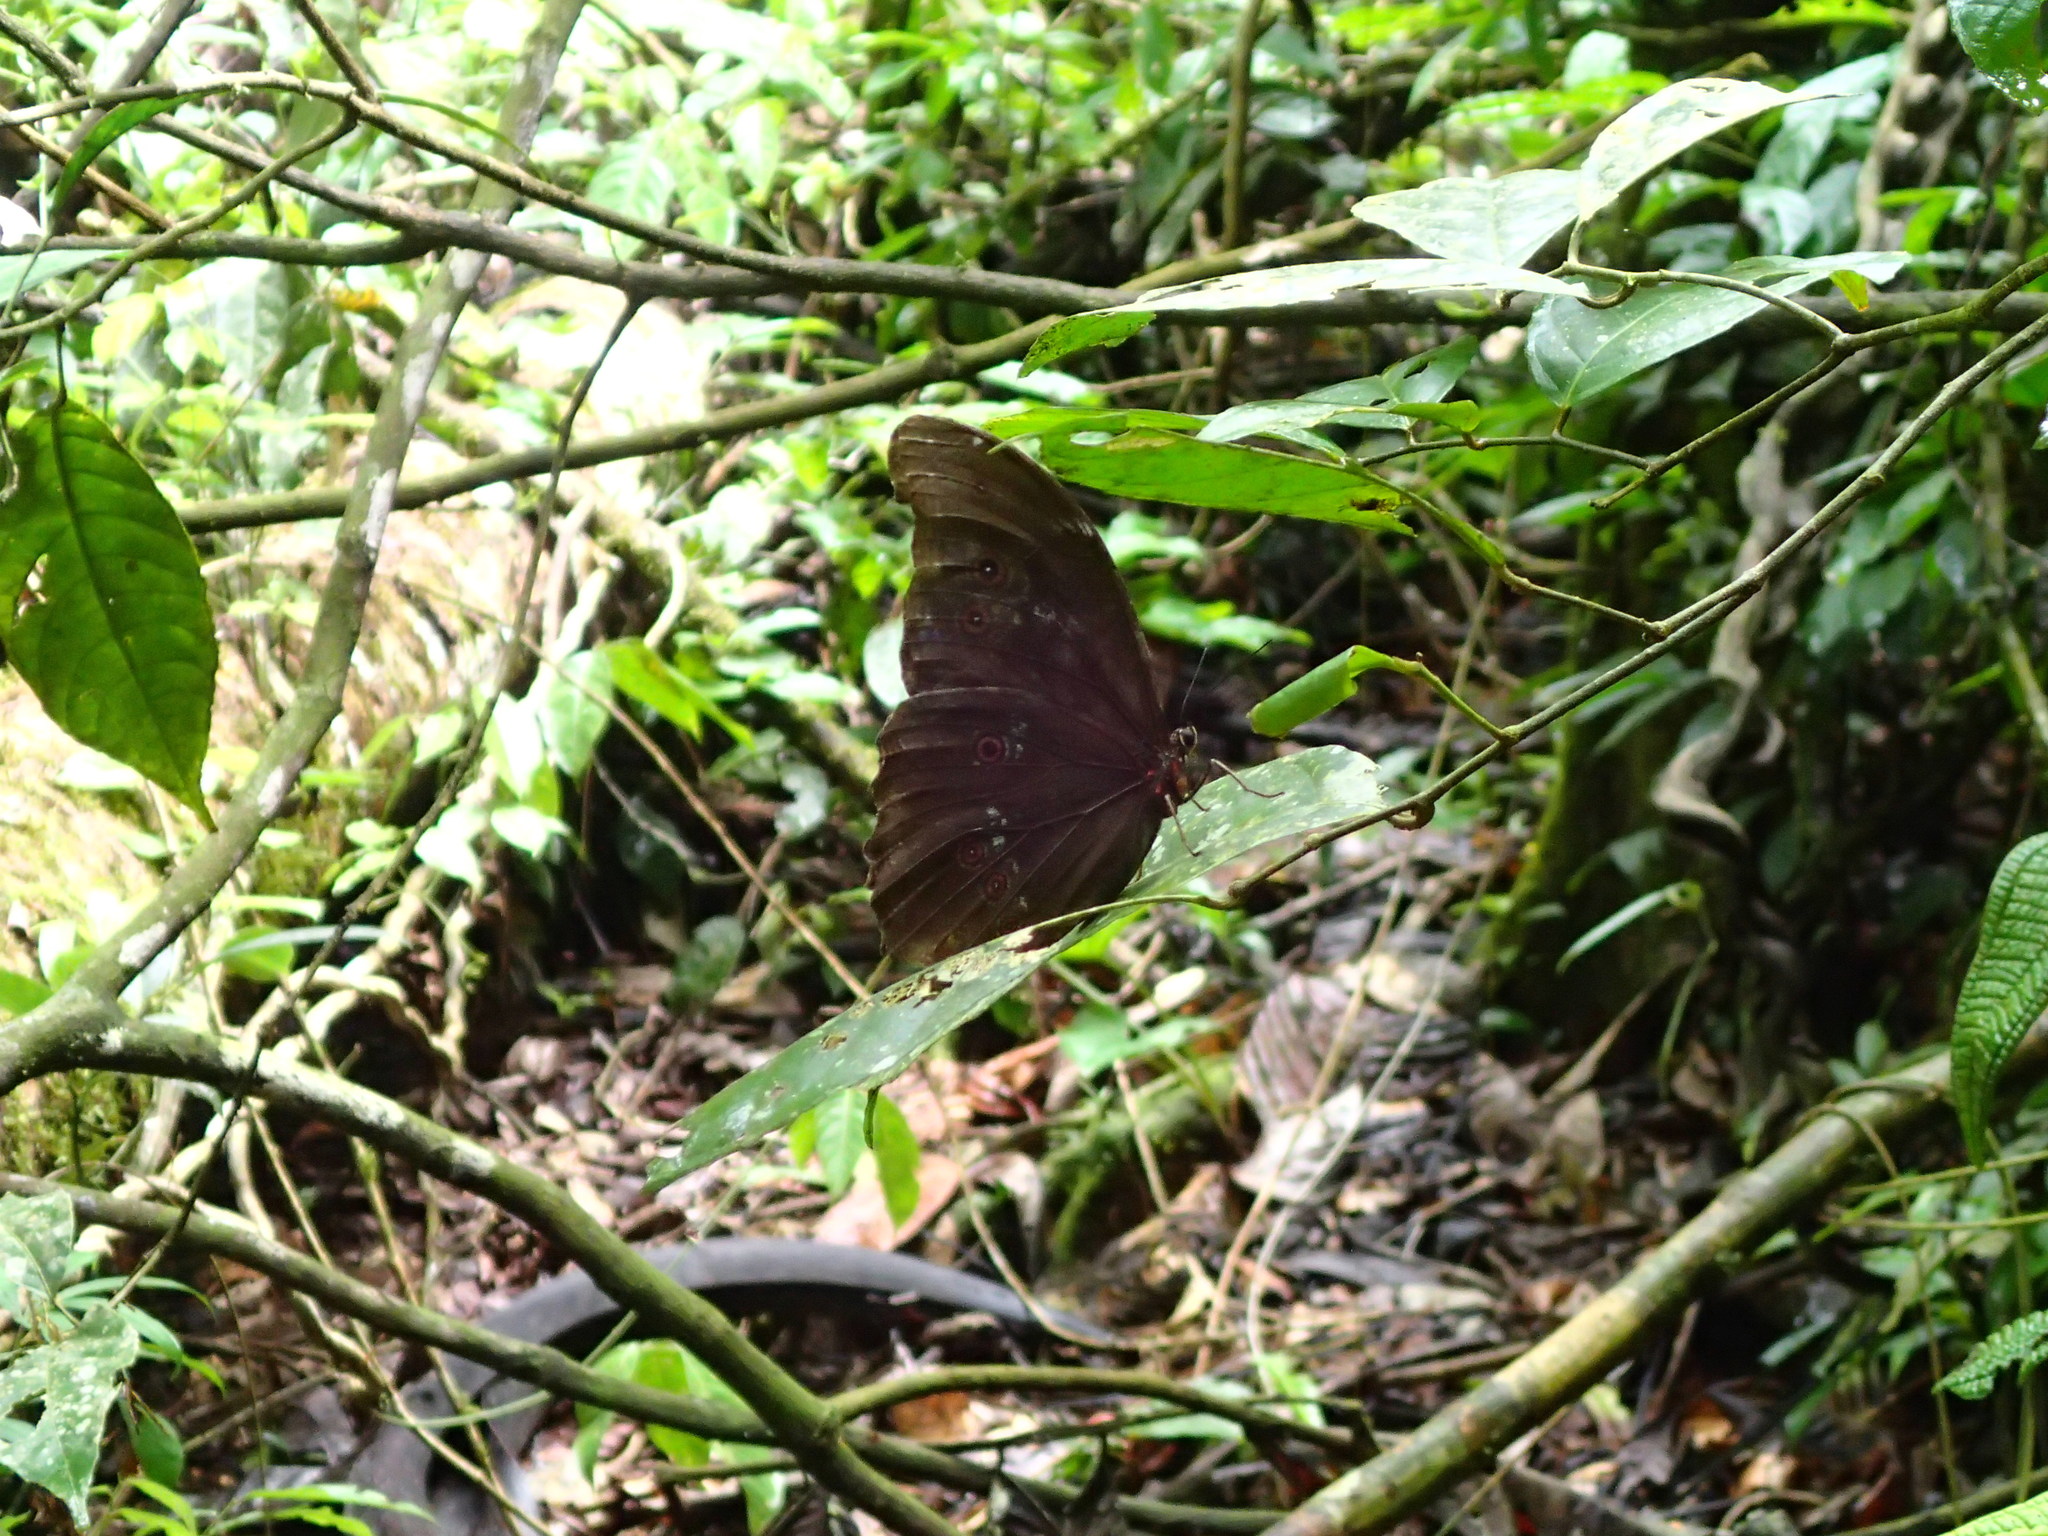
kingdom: Animalia
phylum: Arthropoda
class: Insecta
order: Lepidoptera
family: Nymphalidae
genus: Morpho
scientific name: Morpho menelaus
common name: Menelaus morpho
